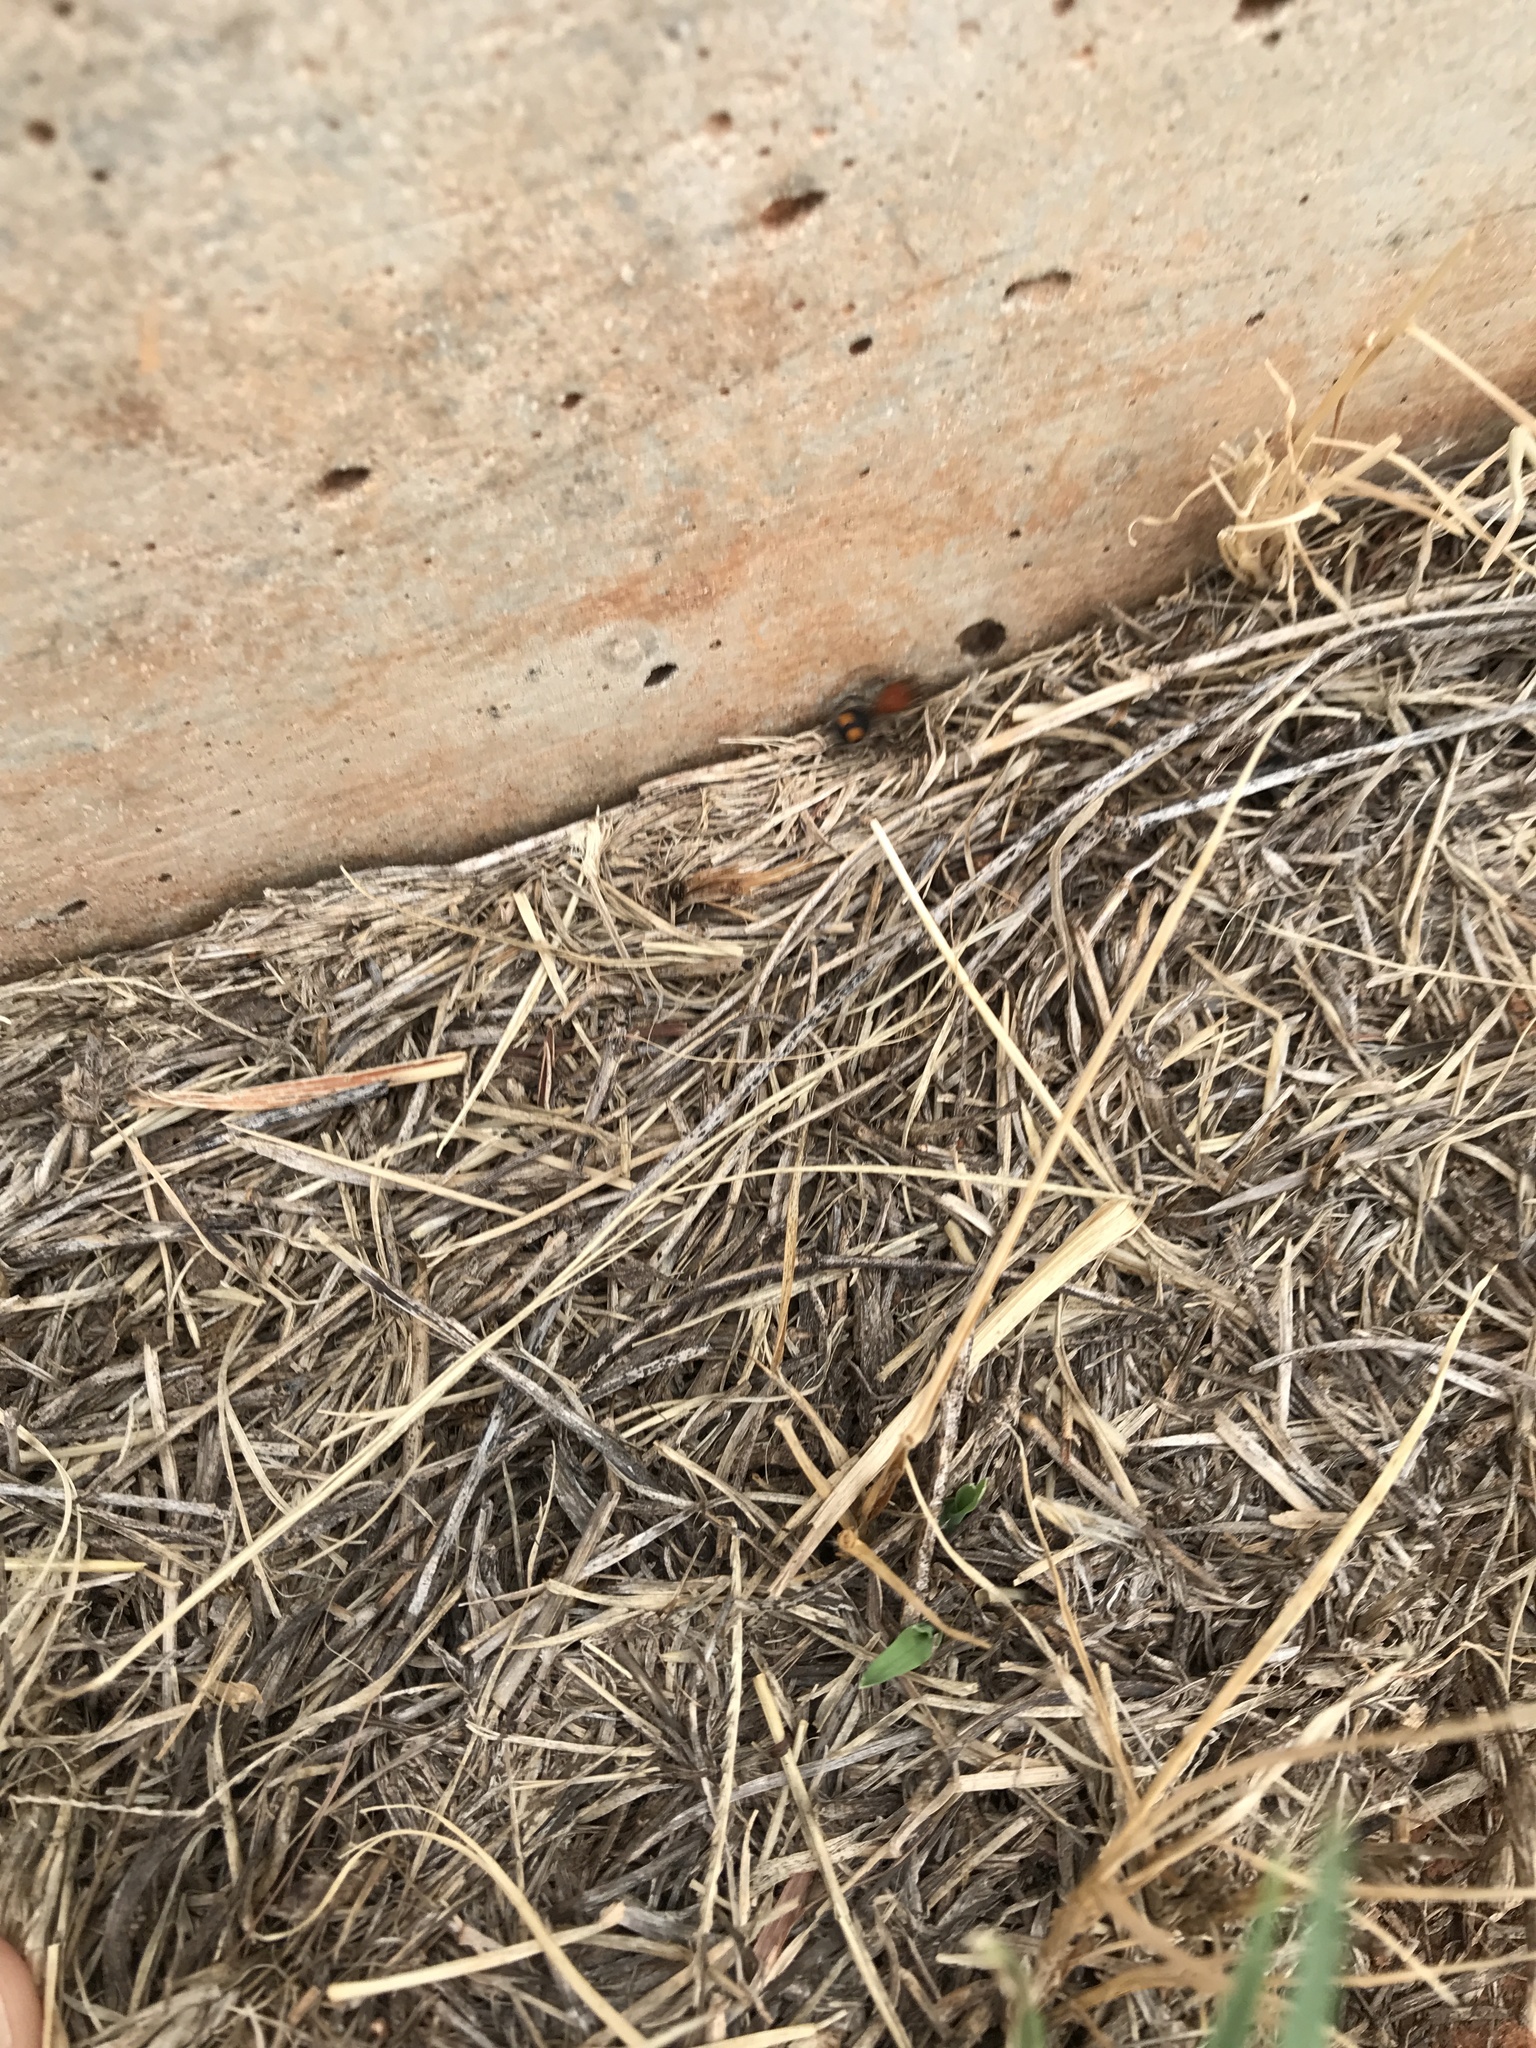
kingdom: Animalia
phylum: Arthropoda
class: Insecta
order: Hymenoptera
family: Mutillidae
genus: Dasymutilla
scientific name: Dasymutilla
